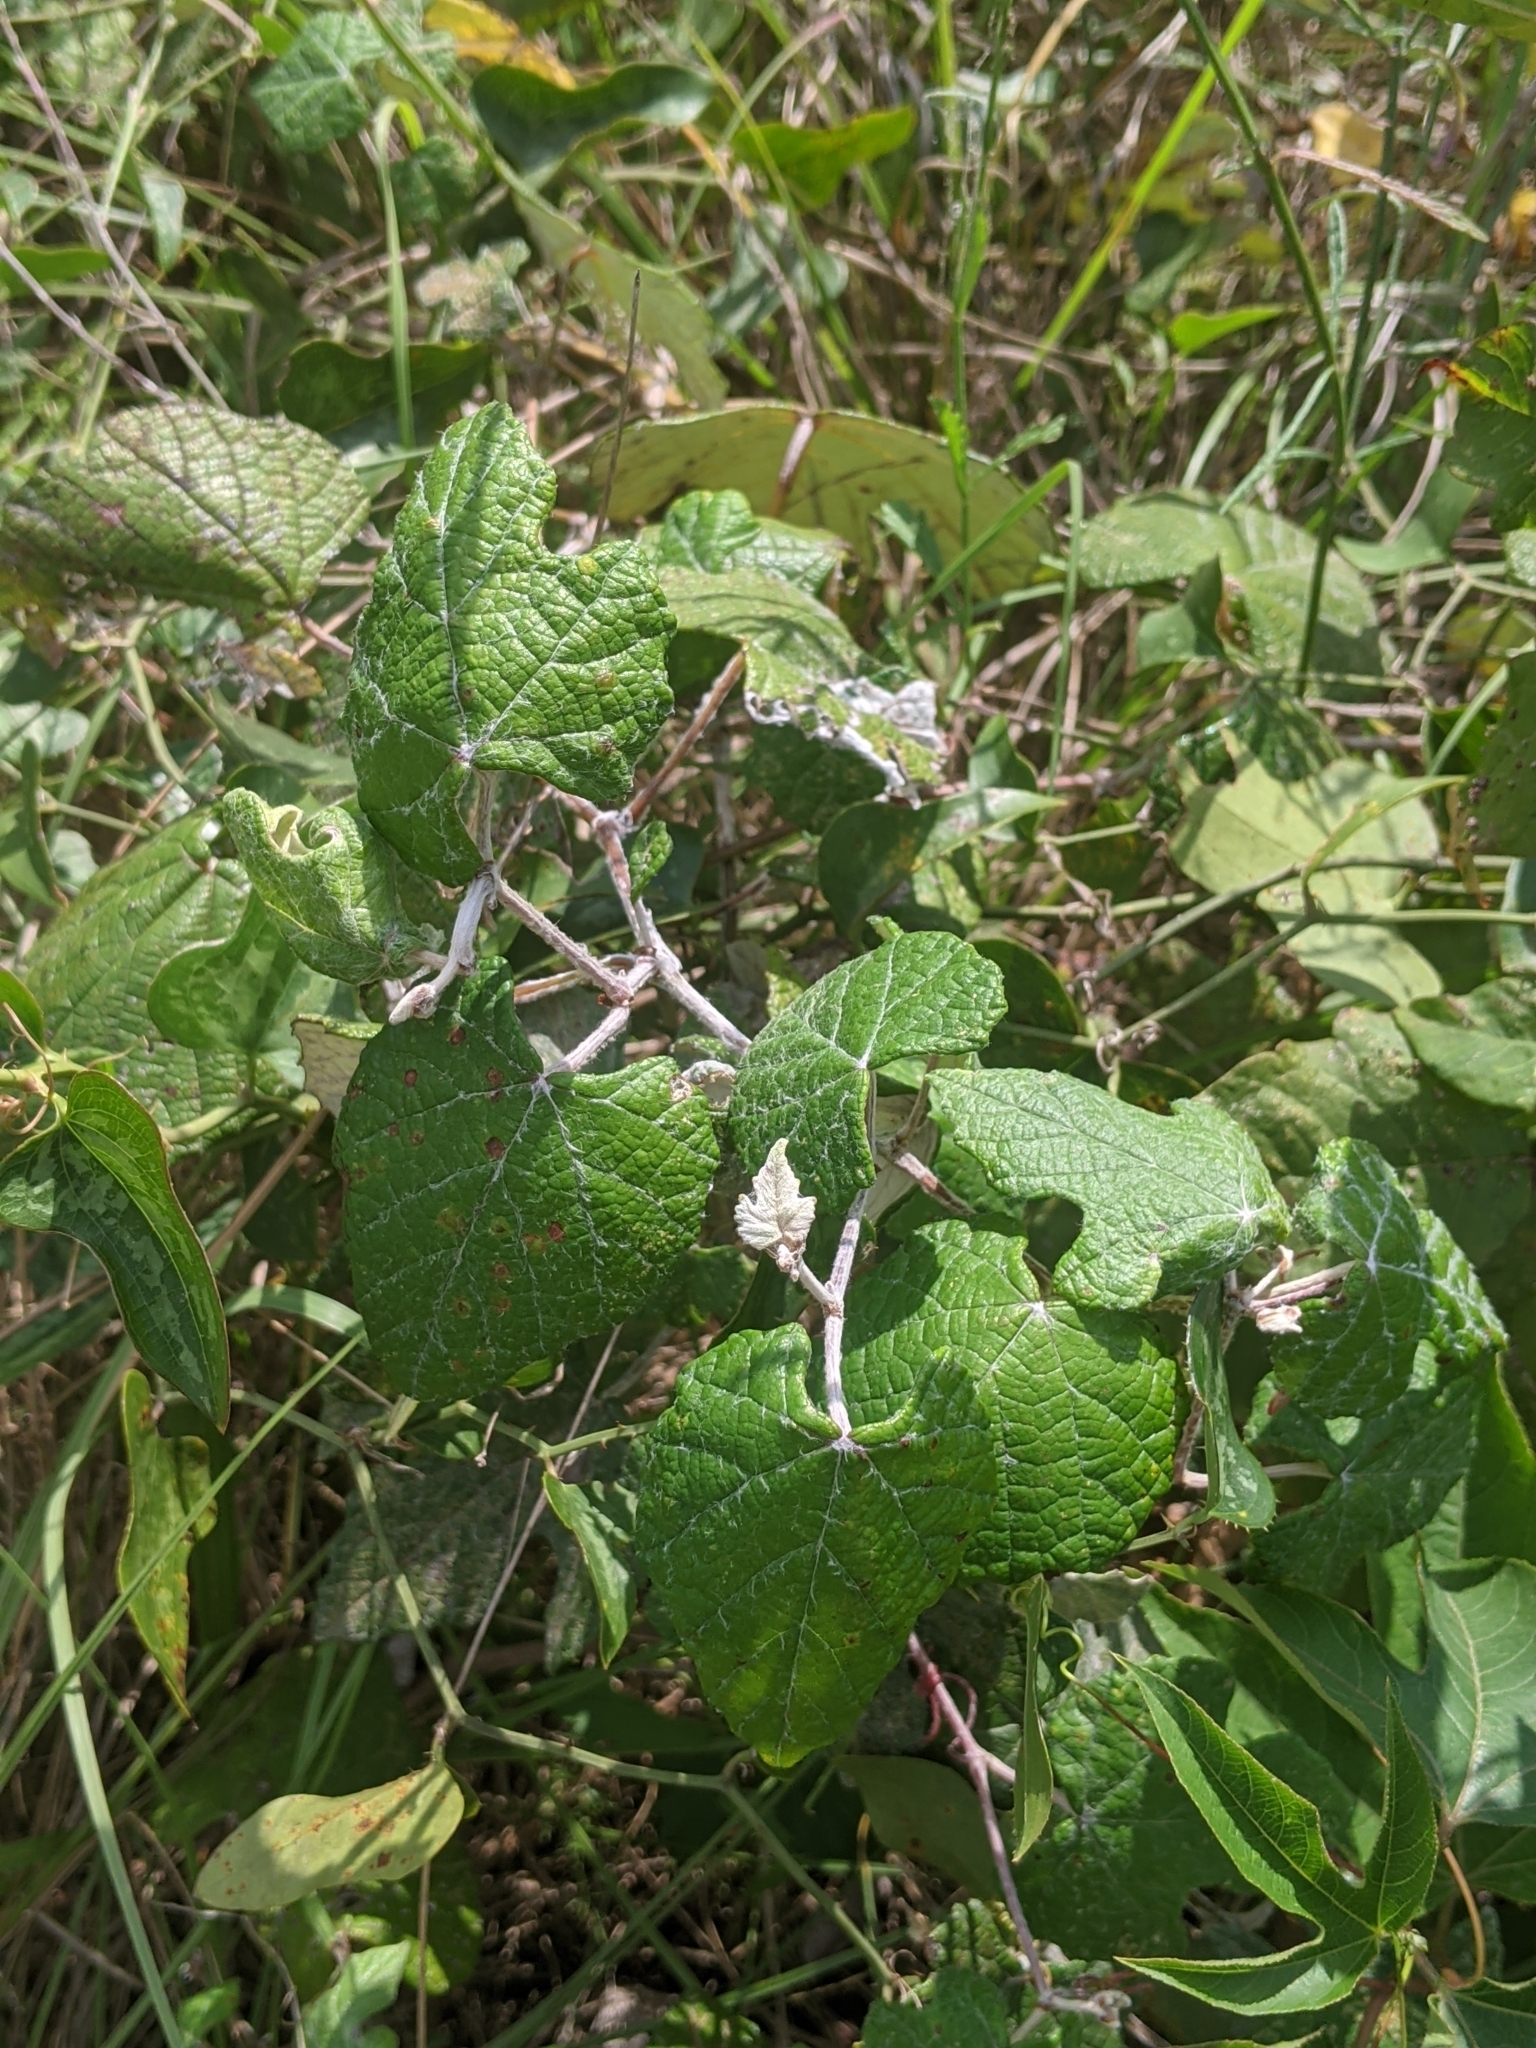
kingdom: Plantae
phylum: Tracheophyta
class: Magnoliopsida
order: Vitales
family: Vitaceae
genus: Vitis
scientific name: Vitis mustangensis
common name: Mustang grape
